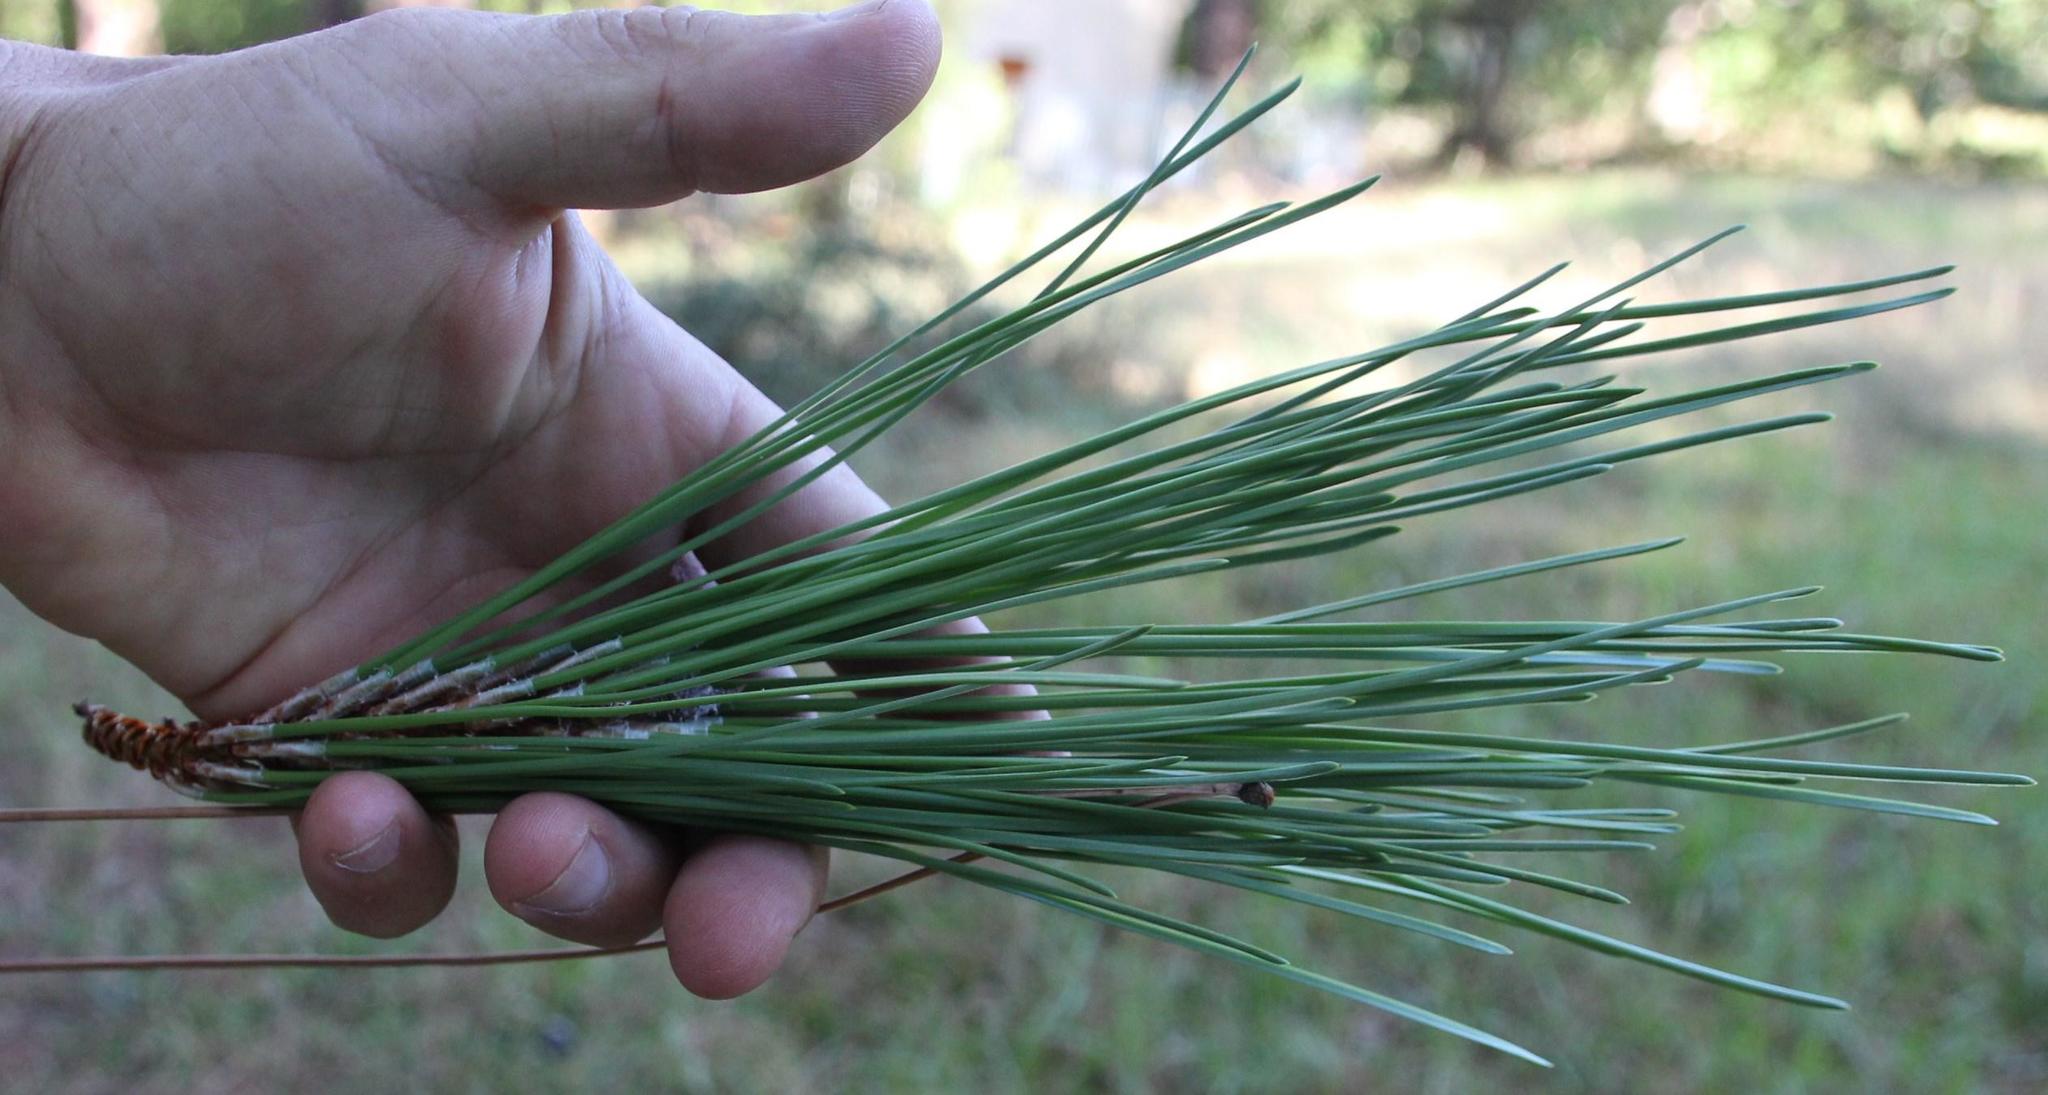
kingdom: Plantae
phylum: Tracheophyta
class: Pinopsida
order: Pinales
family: Pinaceae
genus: Pinus
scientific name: Pinus pinaster
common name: Maritime pine
